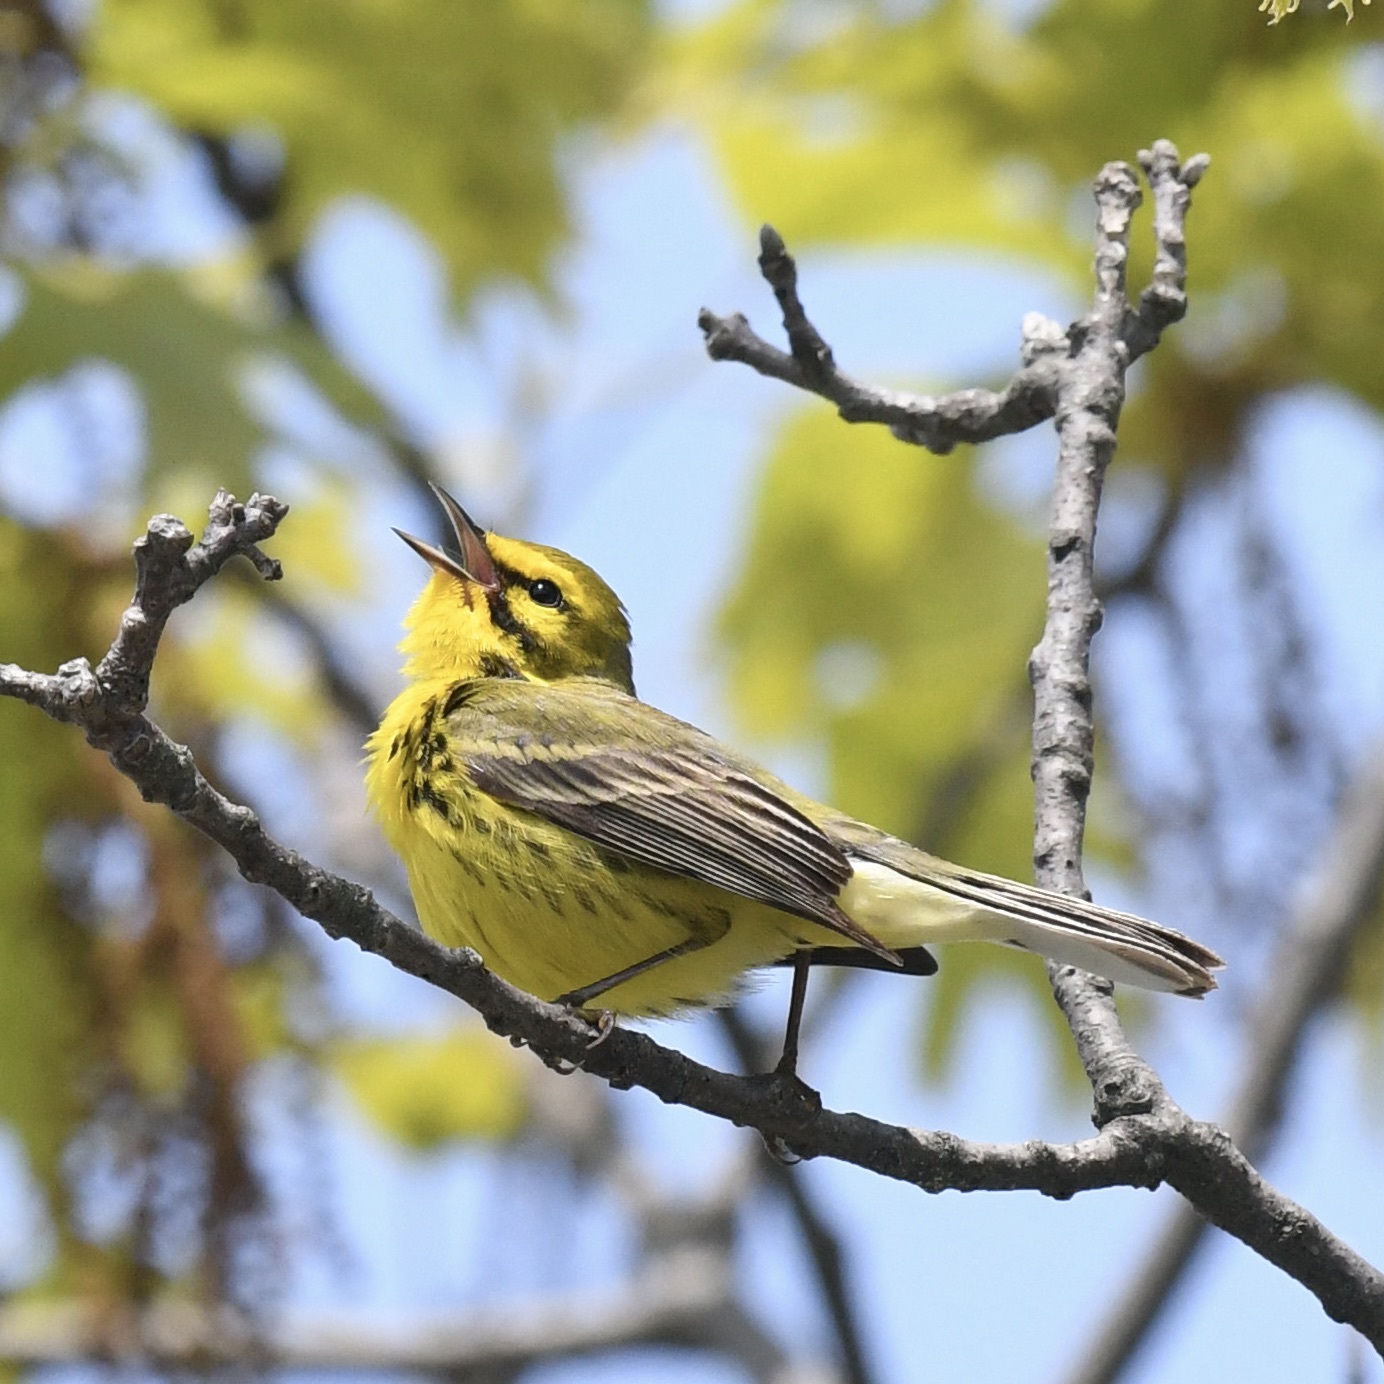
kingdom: Animalia
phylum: Chordata
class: Aves
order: Passeriformes
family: Parulidae
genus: Setophaga
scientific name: Setophaga discolor
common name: Prairie warbler
